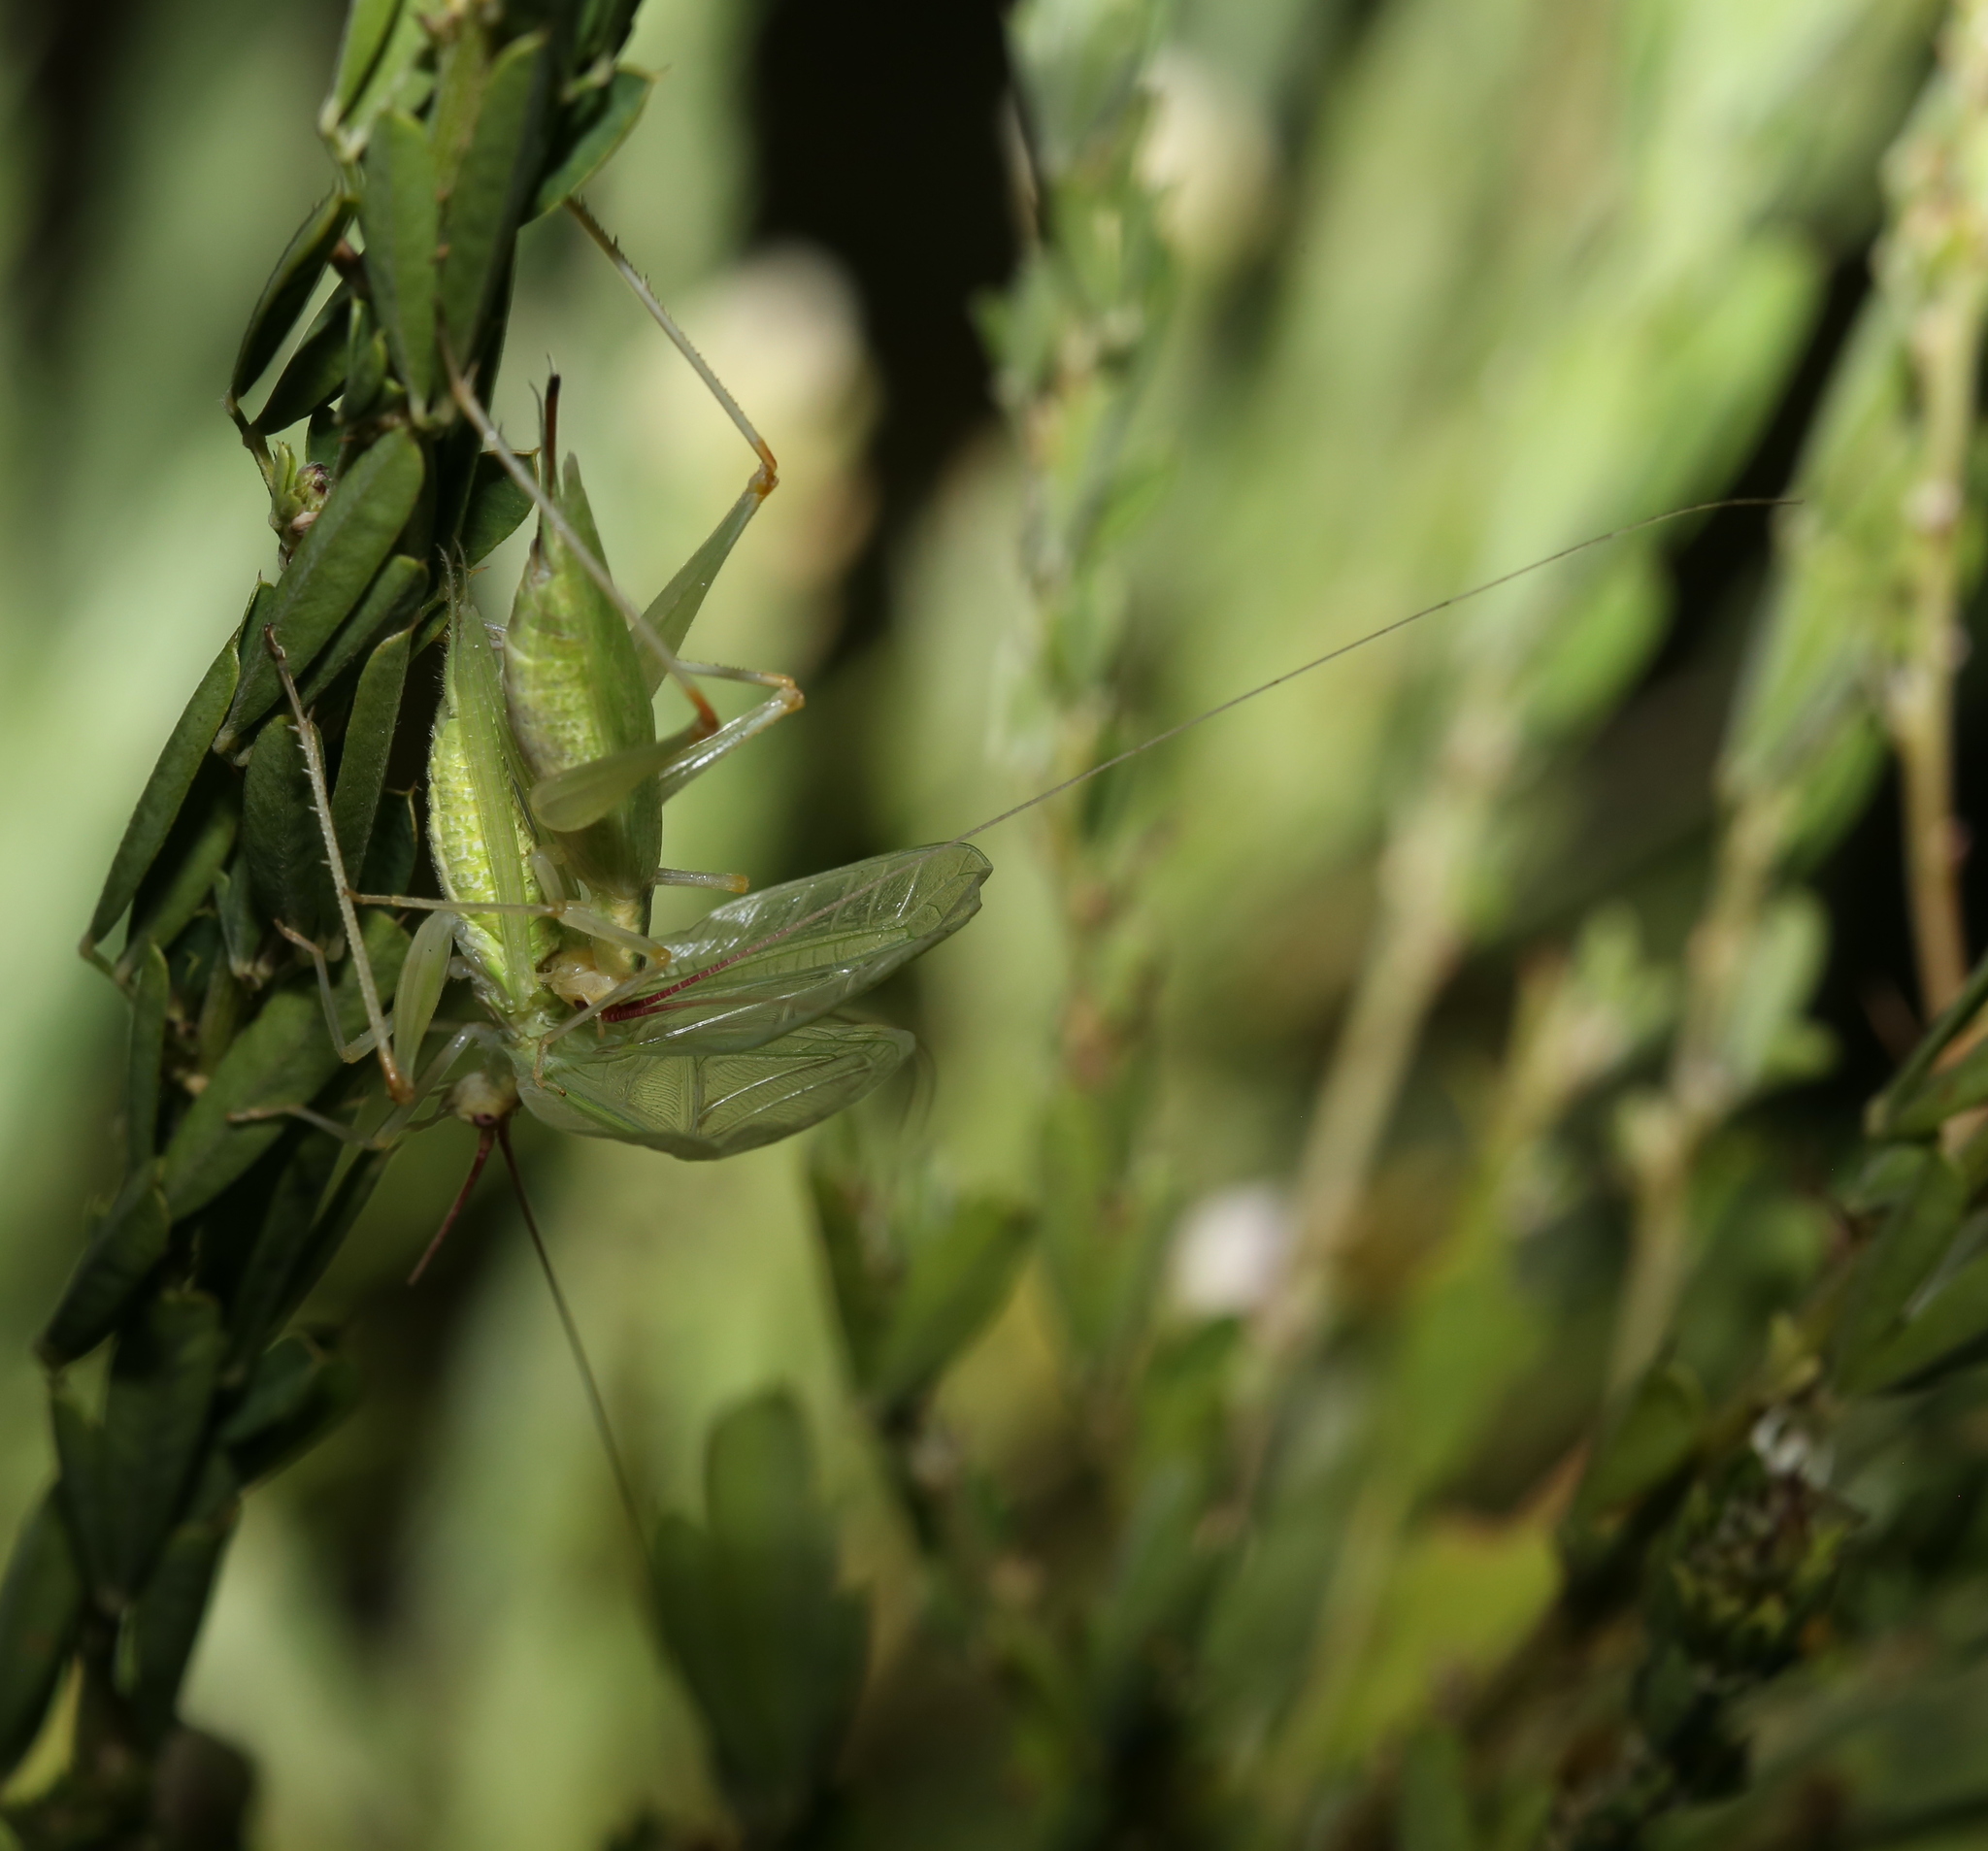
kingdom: Animalia
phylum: Arthropoda
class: Insecta
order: Orthoptera
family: Gryllidae
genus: Oecanthus
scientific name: Oecanthus latipennis
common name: Broad-winged tree cricket
